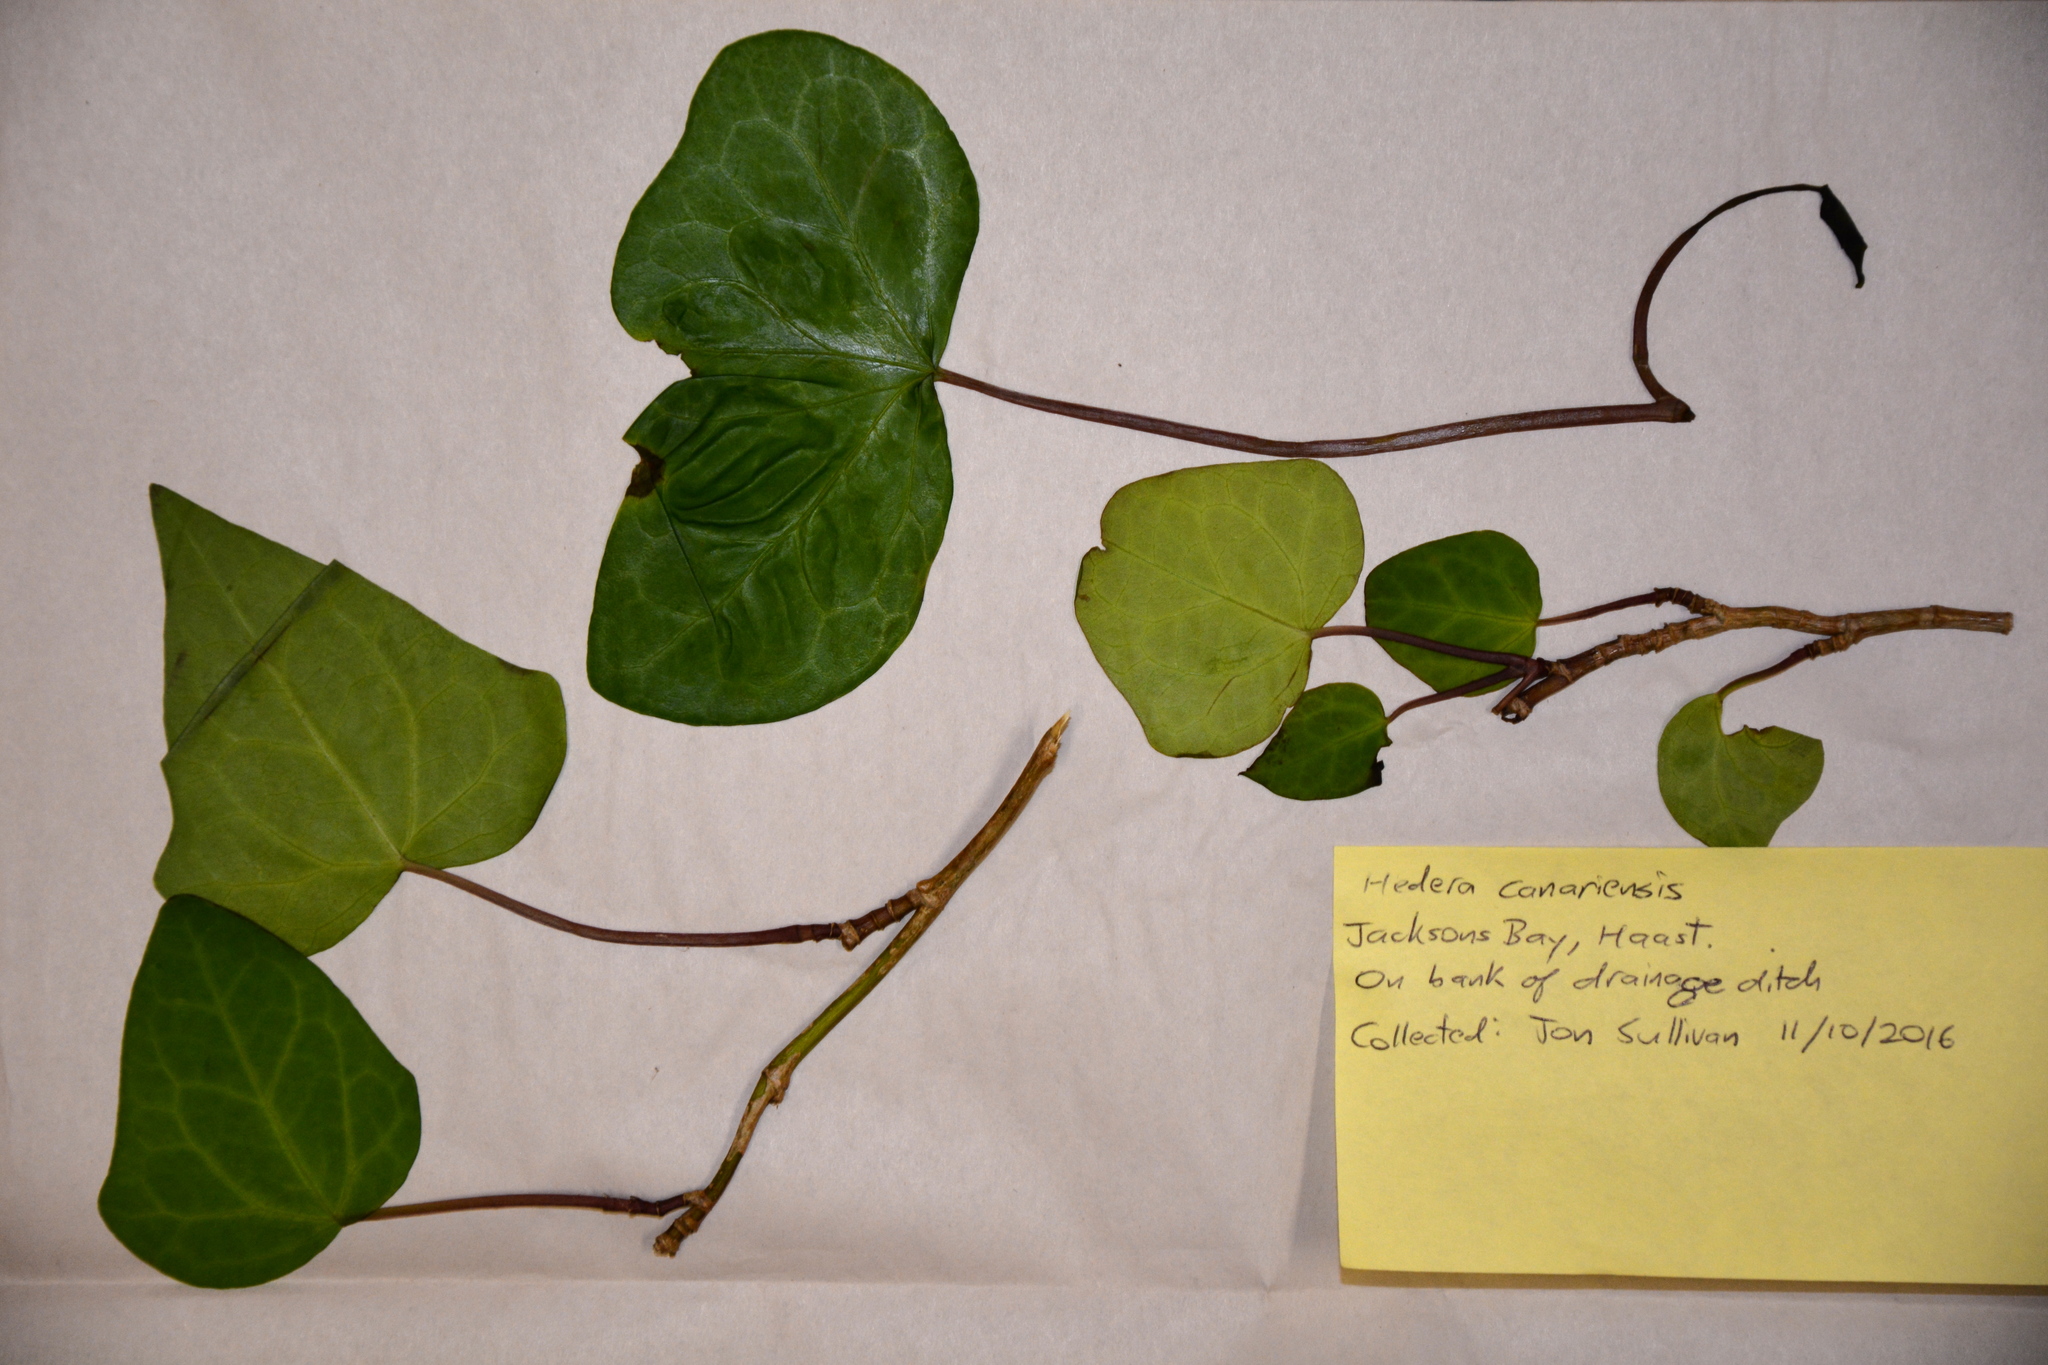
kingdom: Plantae
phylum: Tracheophyta
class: Magnoliopsida
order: Apiales
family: Araliaceae
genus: Hedera
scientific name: Hedera canariensis
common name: Madeira ivy
